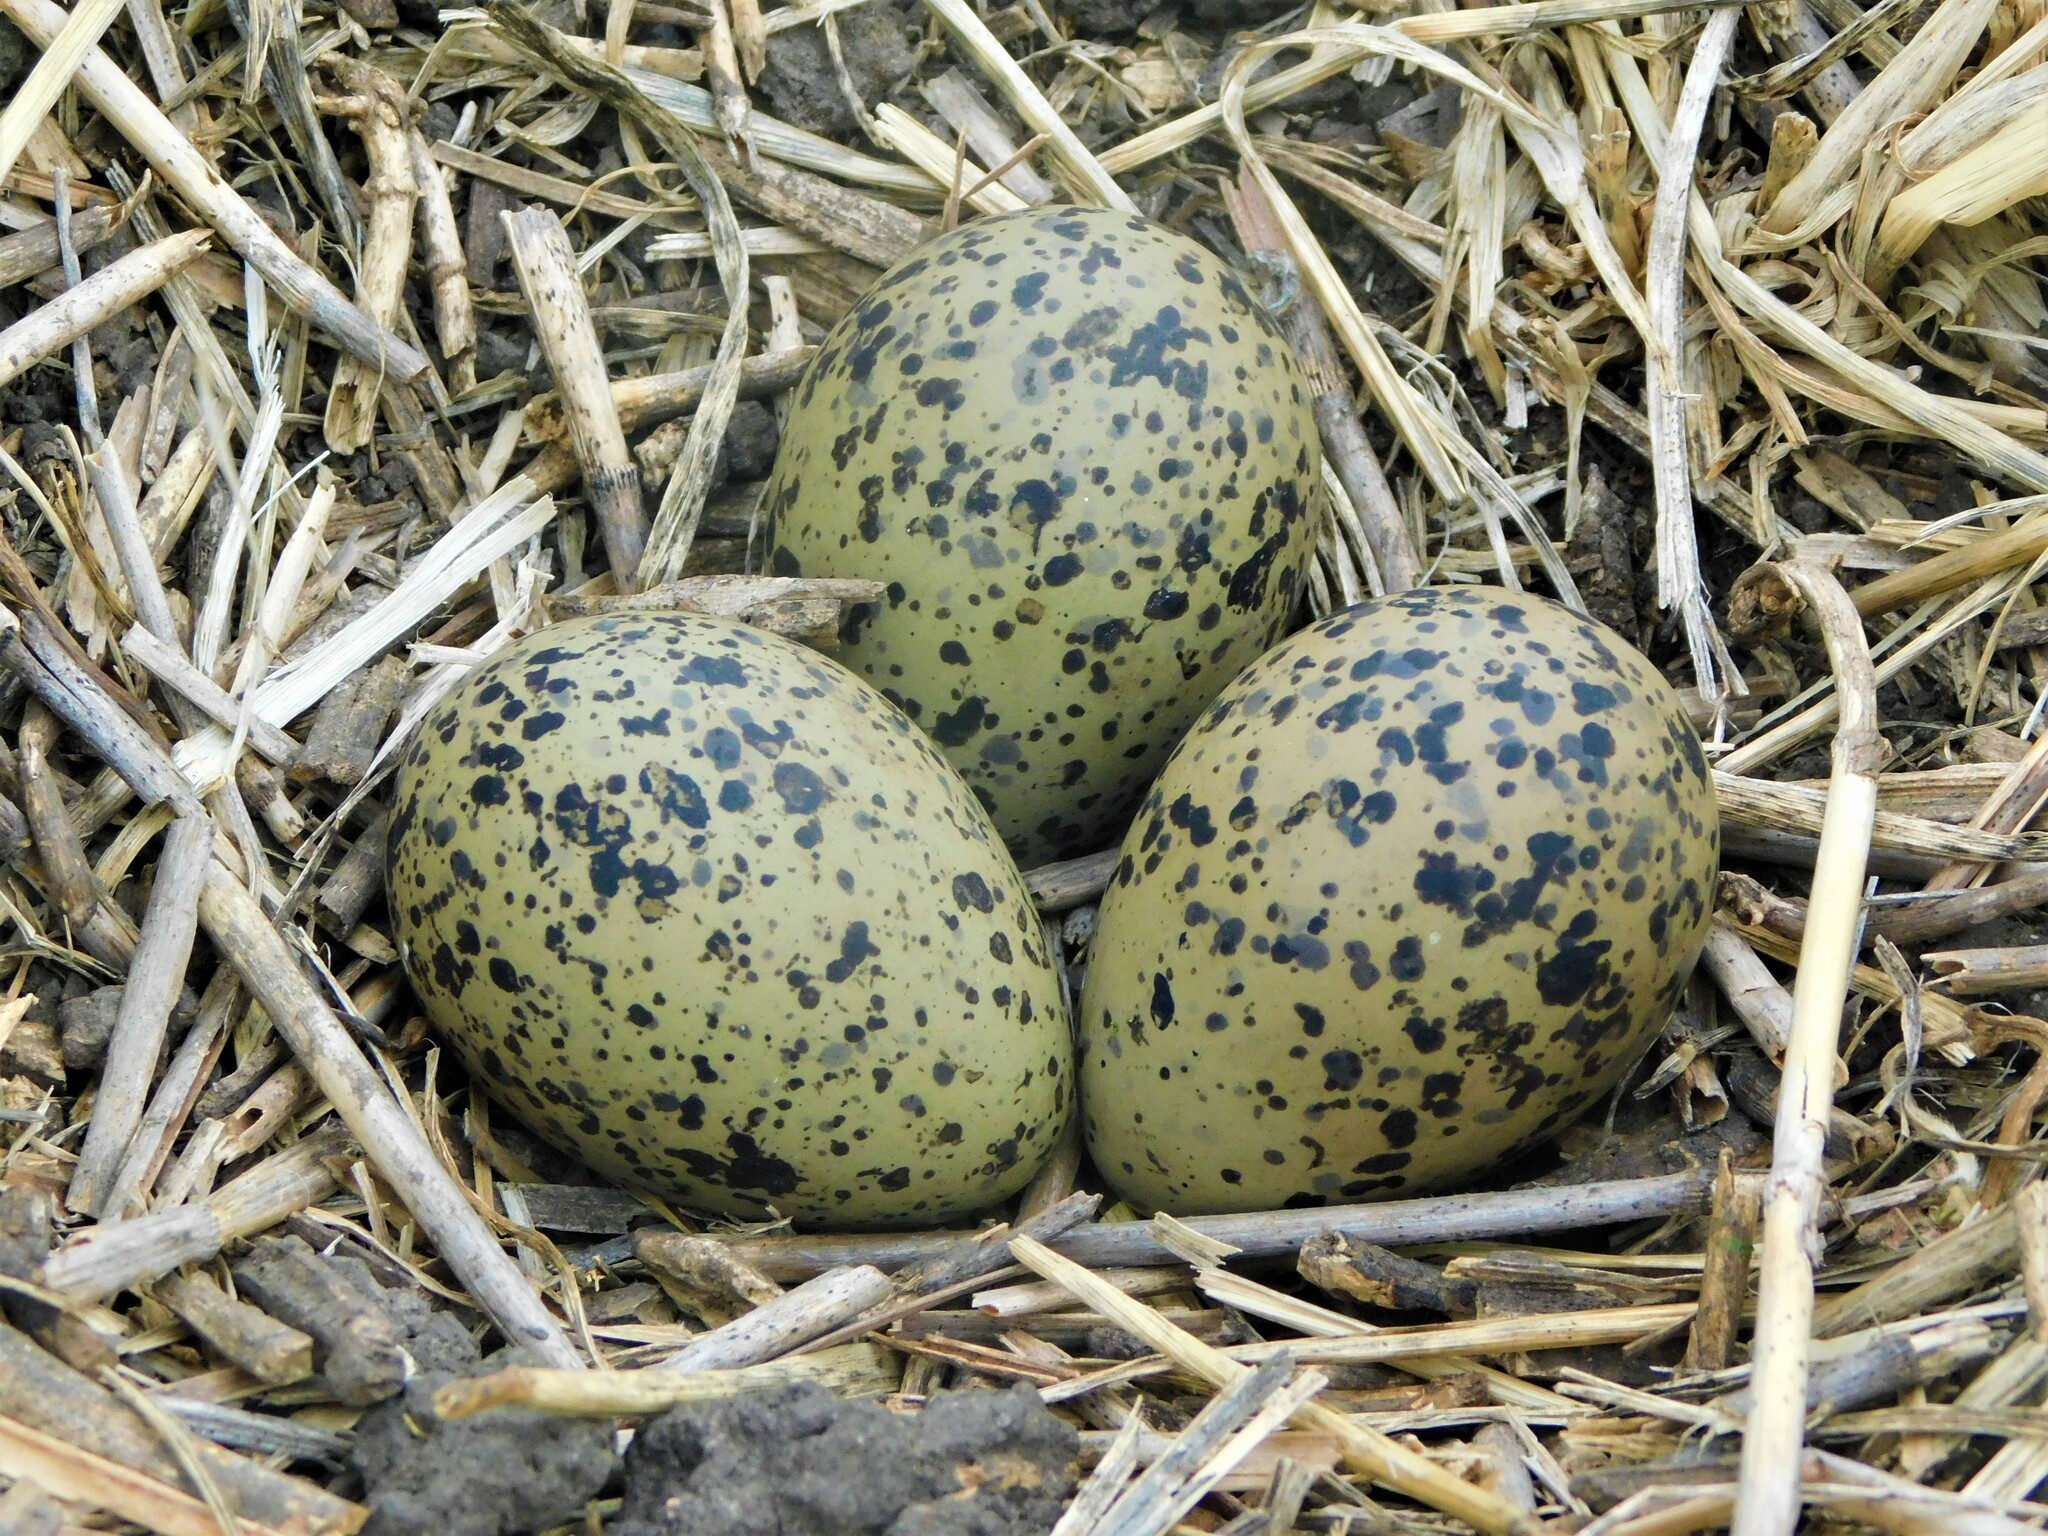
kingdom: Animalia
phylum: Chordata
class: Aves
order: Charadriiformes
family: Charadriidae
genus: Vanellus
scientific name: Vanellus chilensis
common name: Southern lapwing
